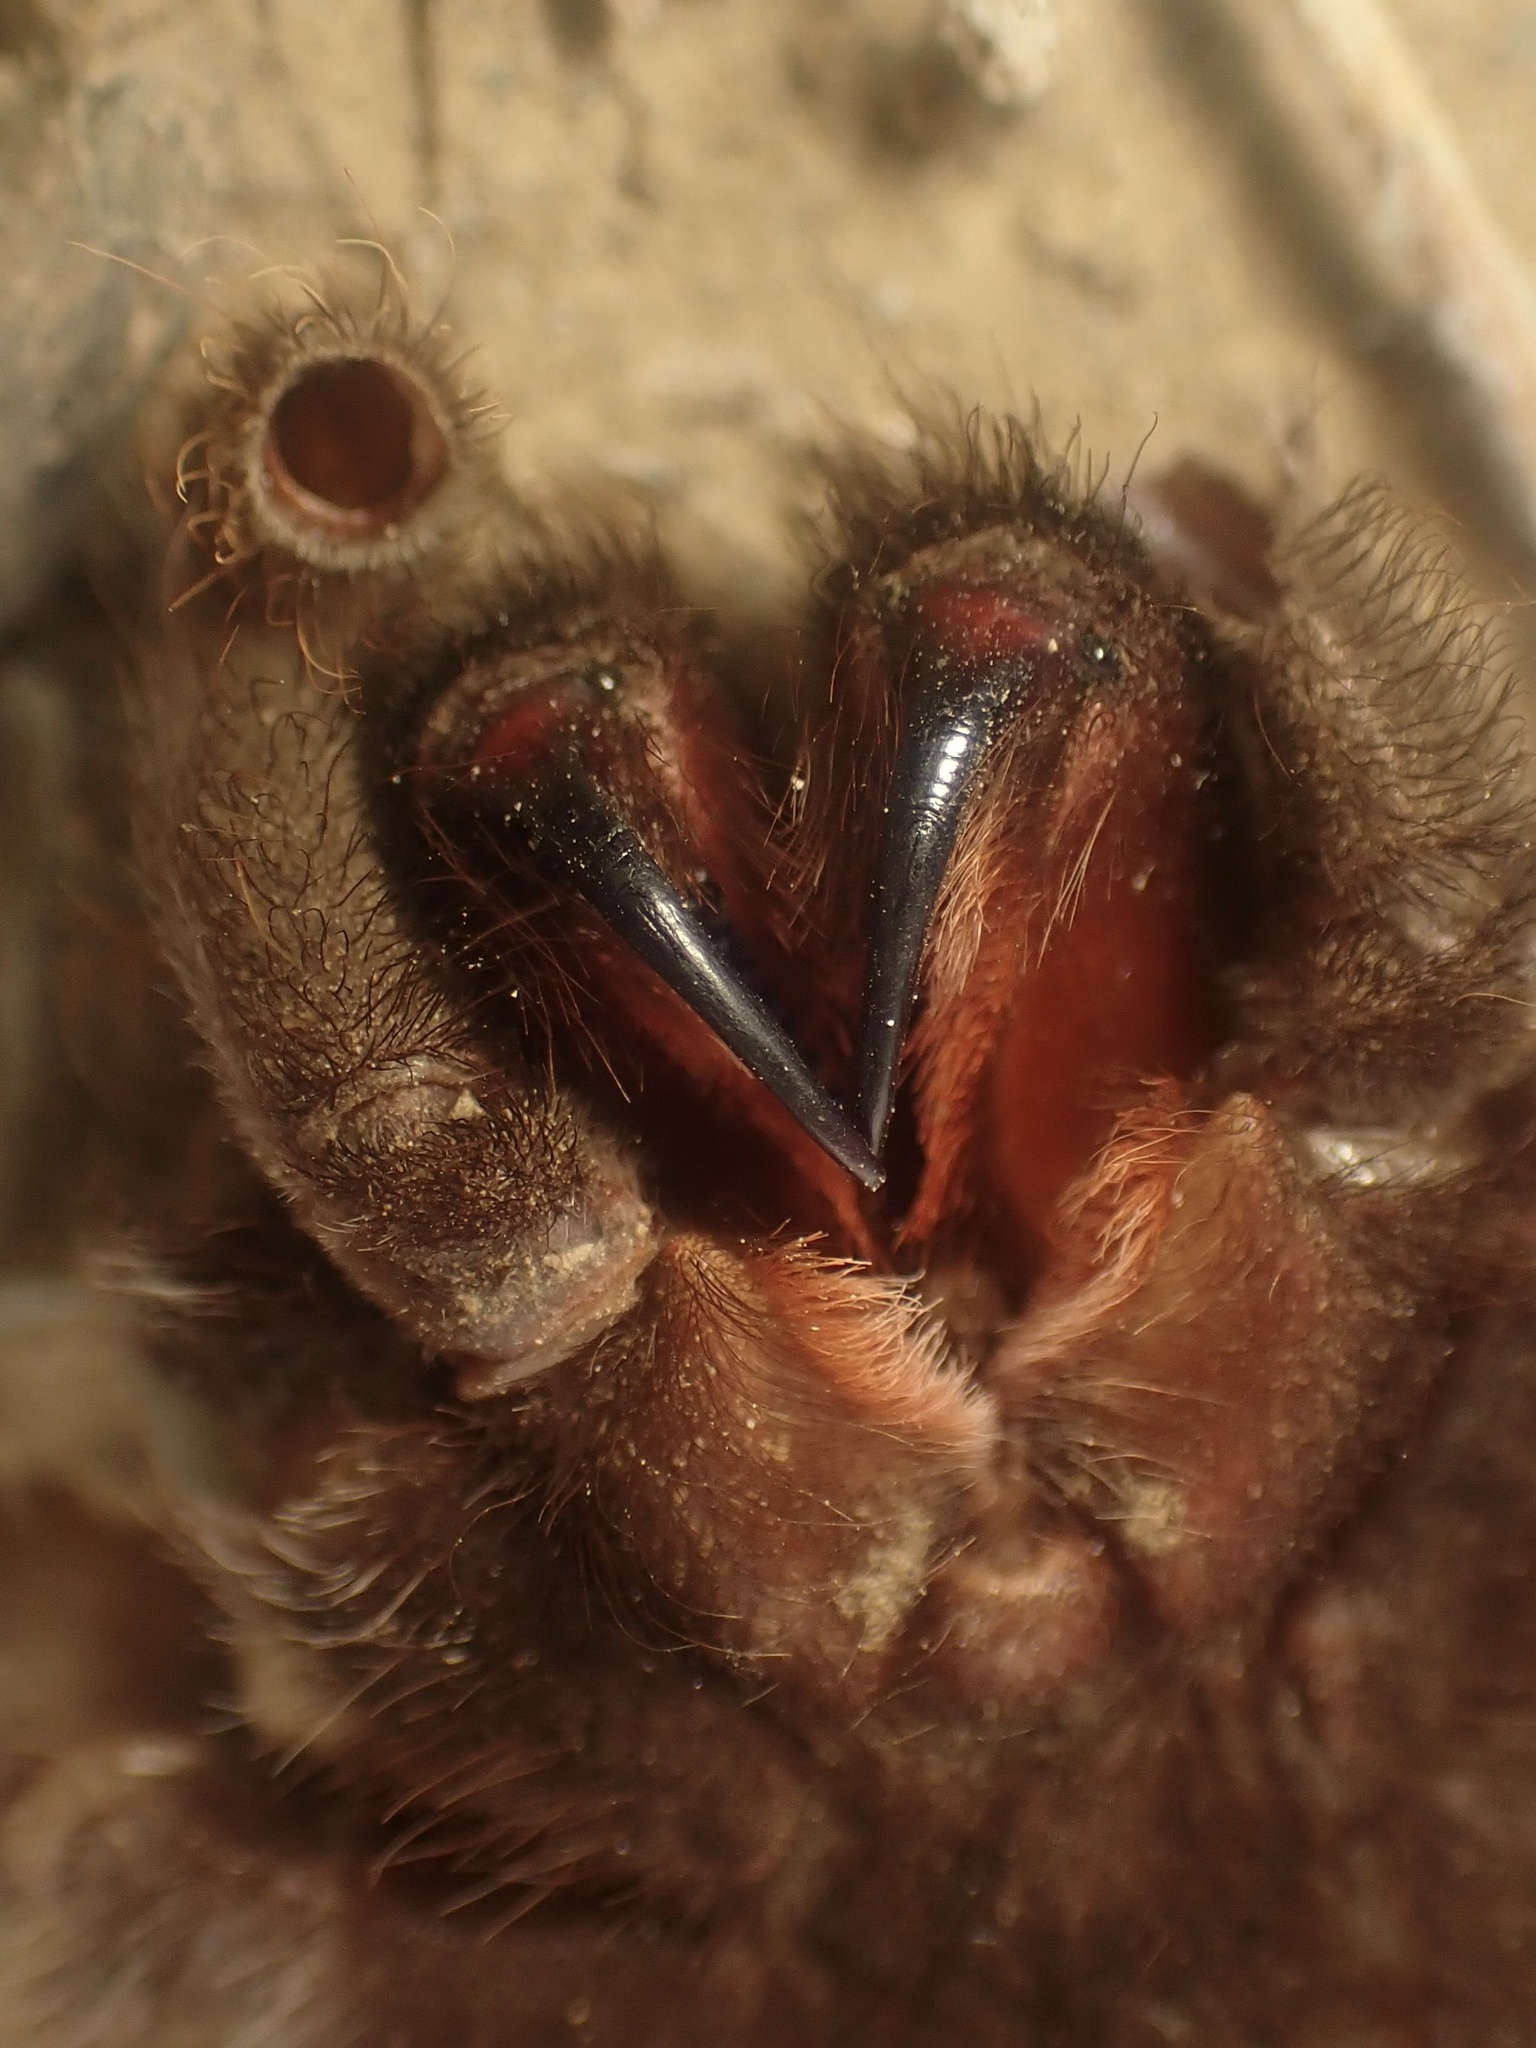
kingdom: Animalia
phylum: Arthropoda
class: Arachnida
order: Araneae
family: Theraphosidae
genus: Aphonopelma
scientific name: Aphonopelma iodius
